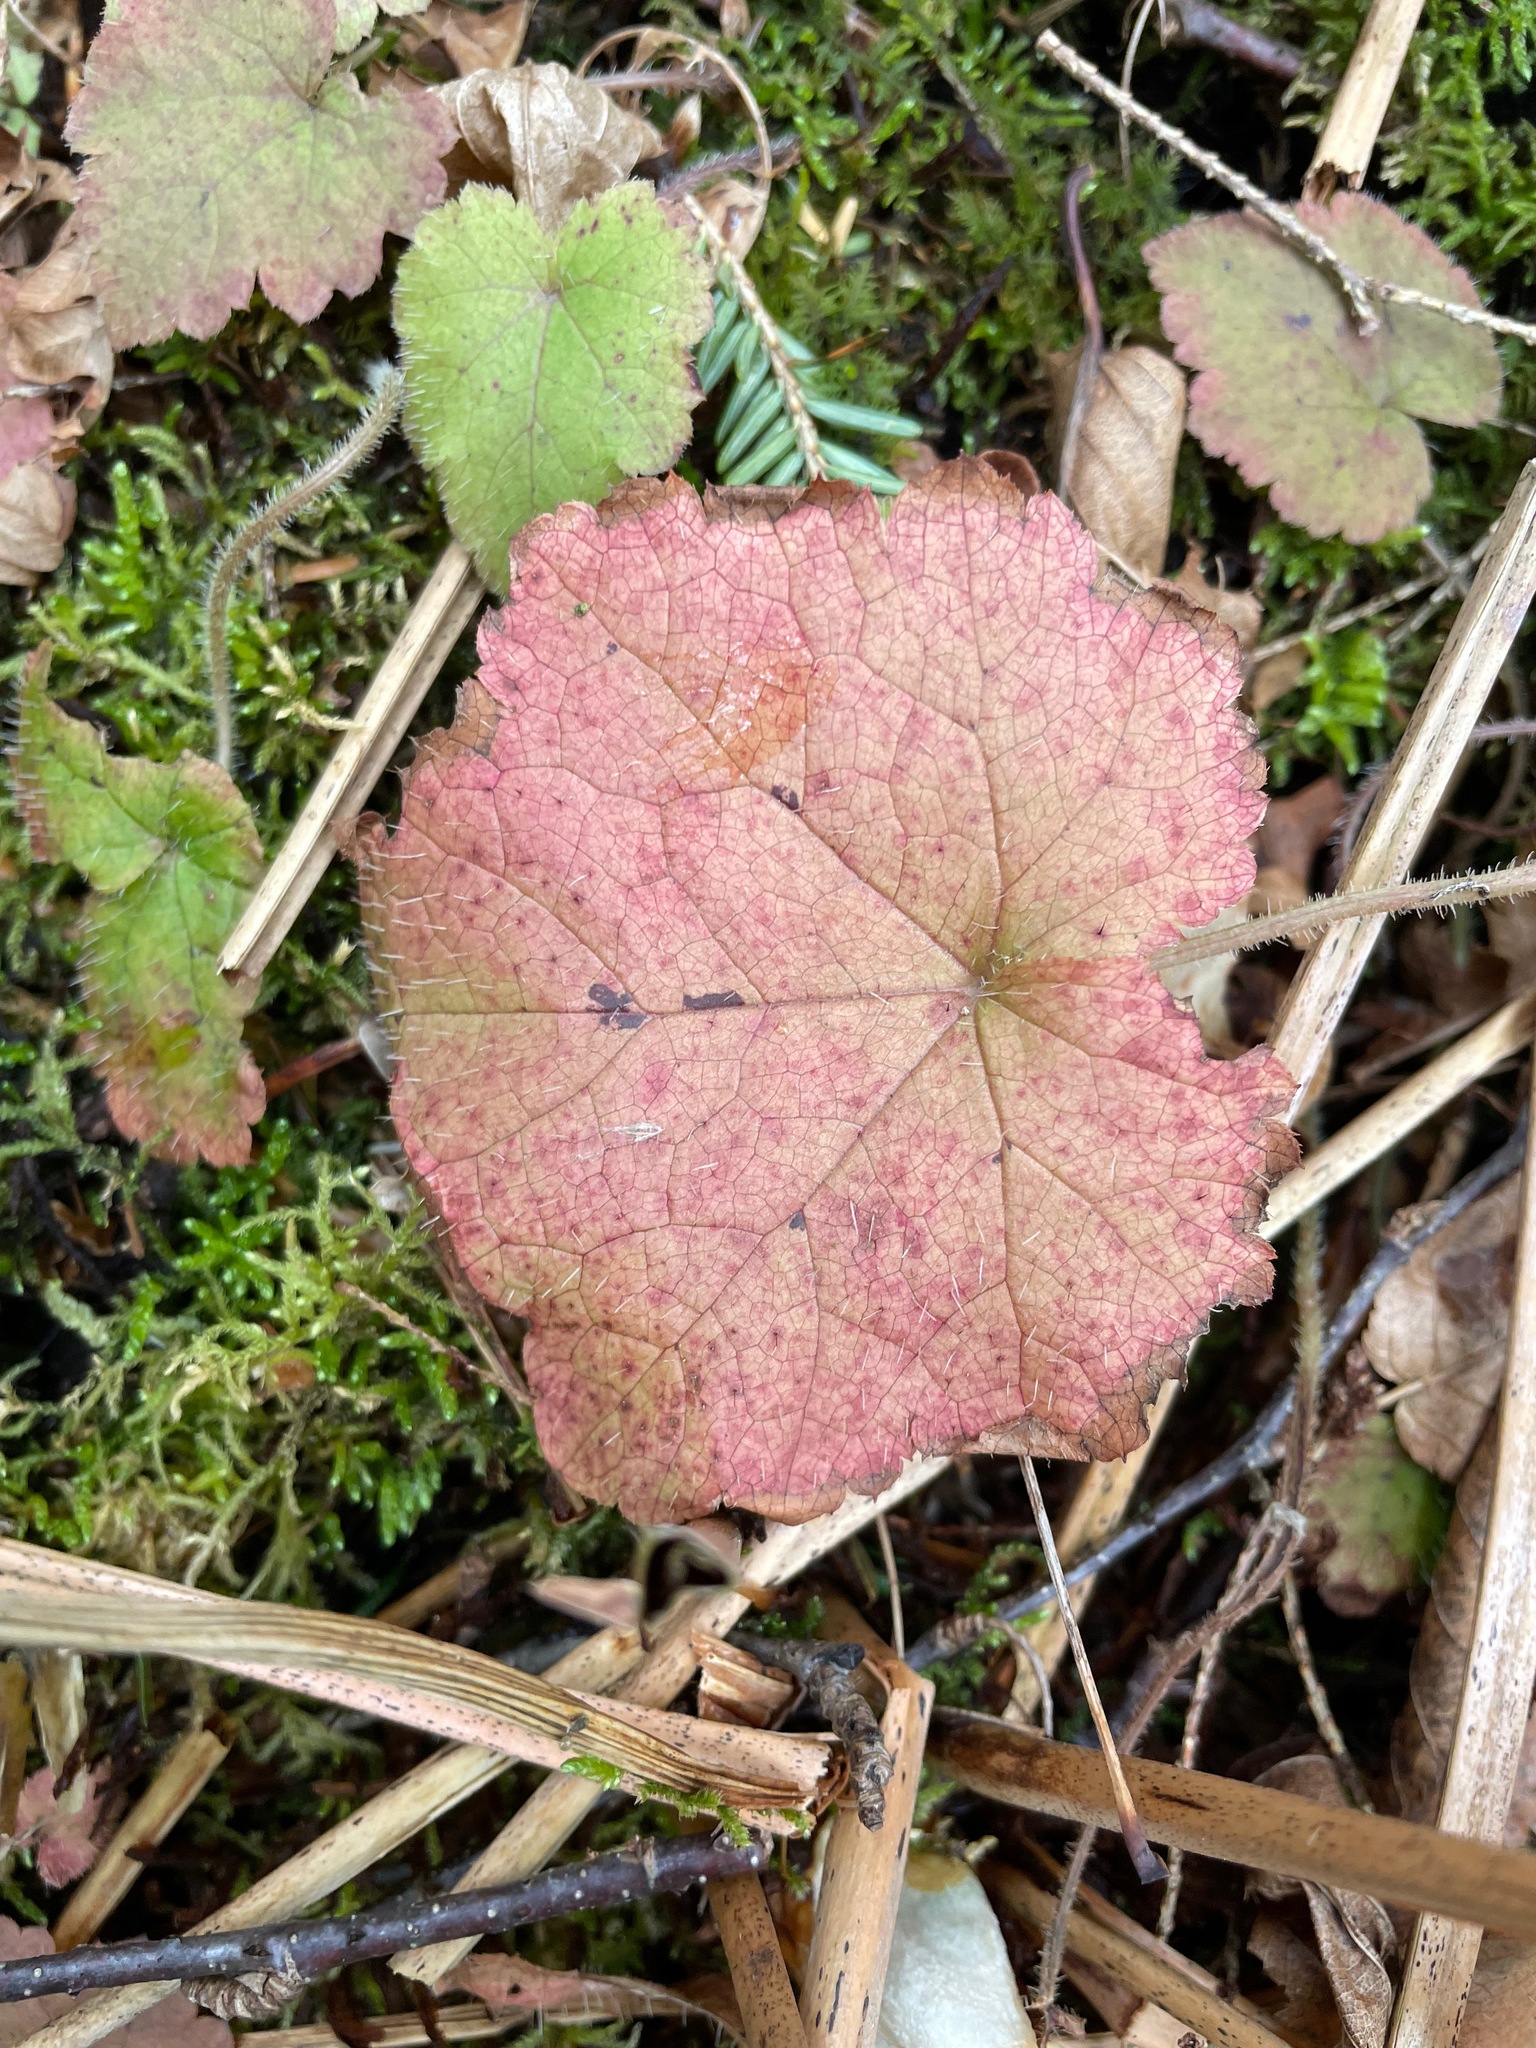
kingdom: Plantae
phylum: Tracheophyta
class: Magnoliopsida
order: Saxifragales
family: Saxifragaceae
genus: Tiarella
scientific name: Tiarella stolonifera
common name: Stoloniferous foamflower
